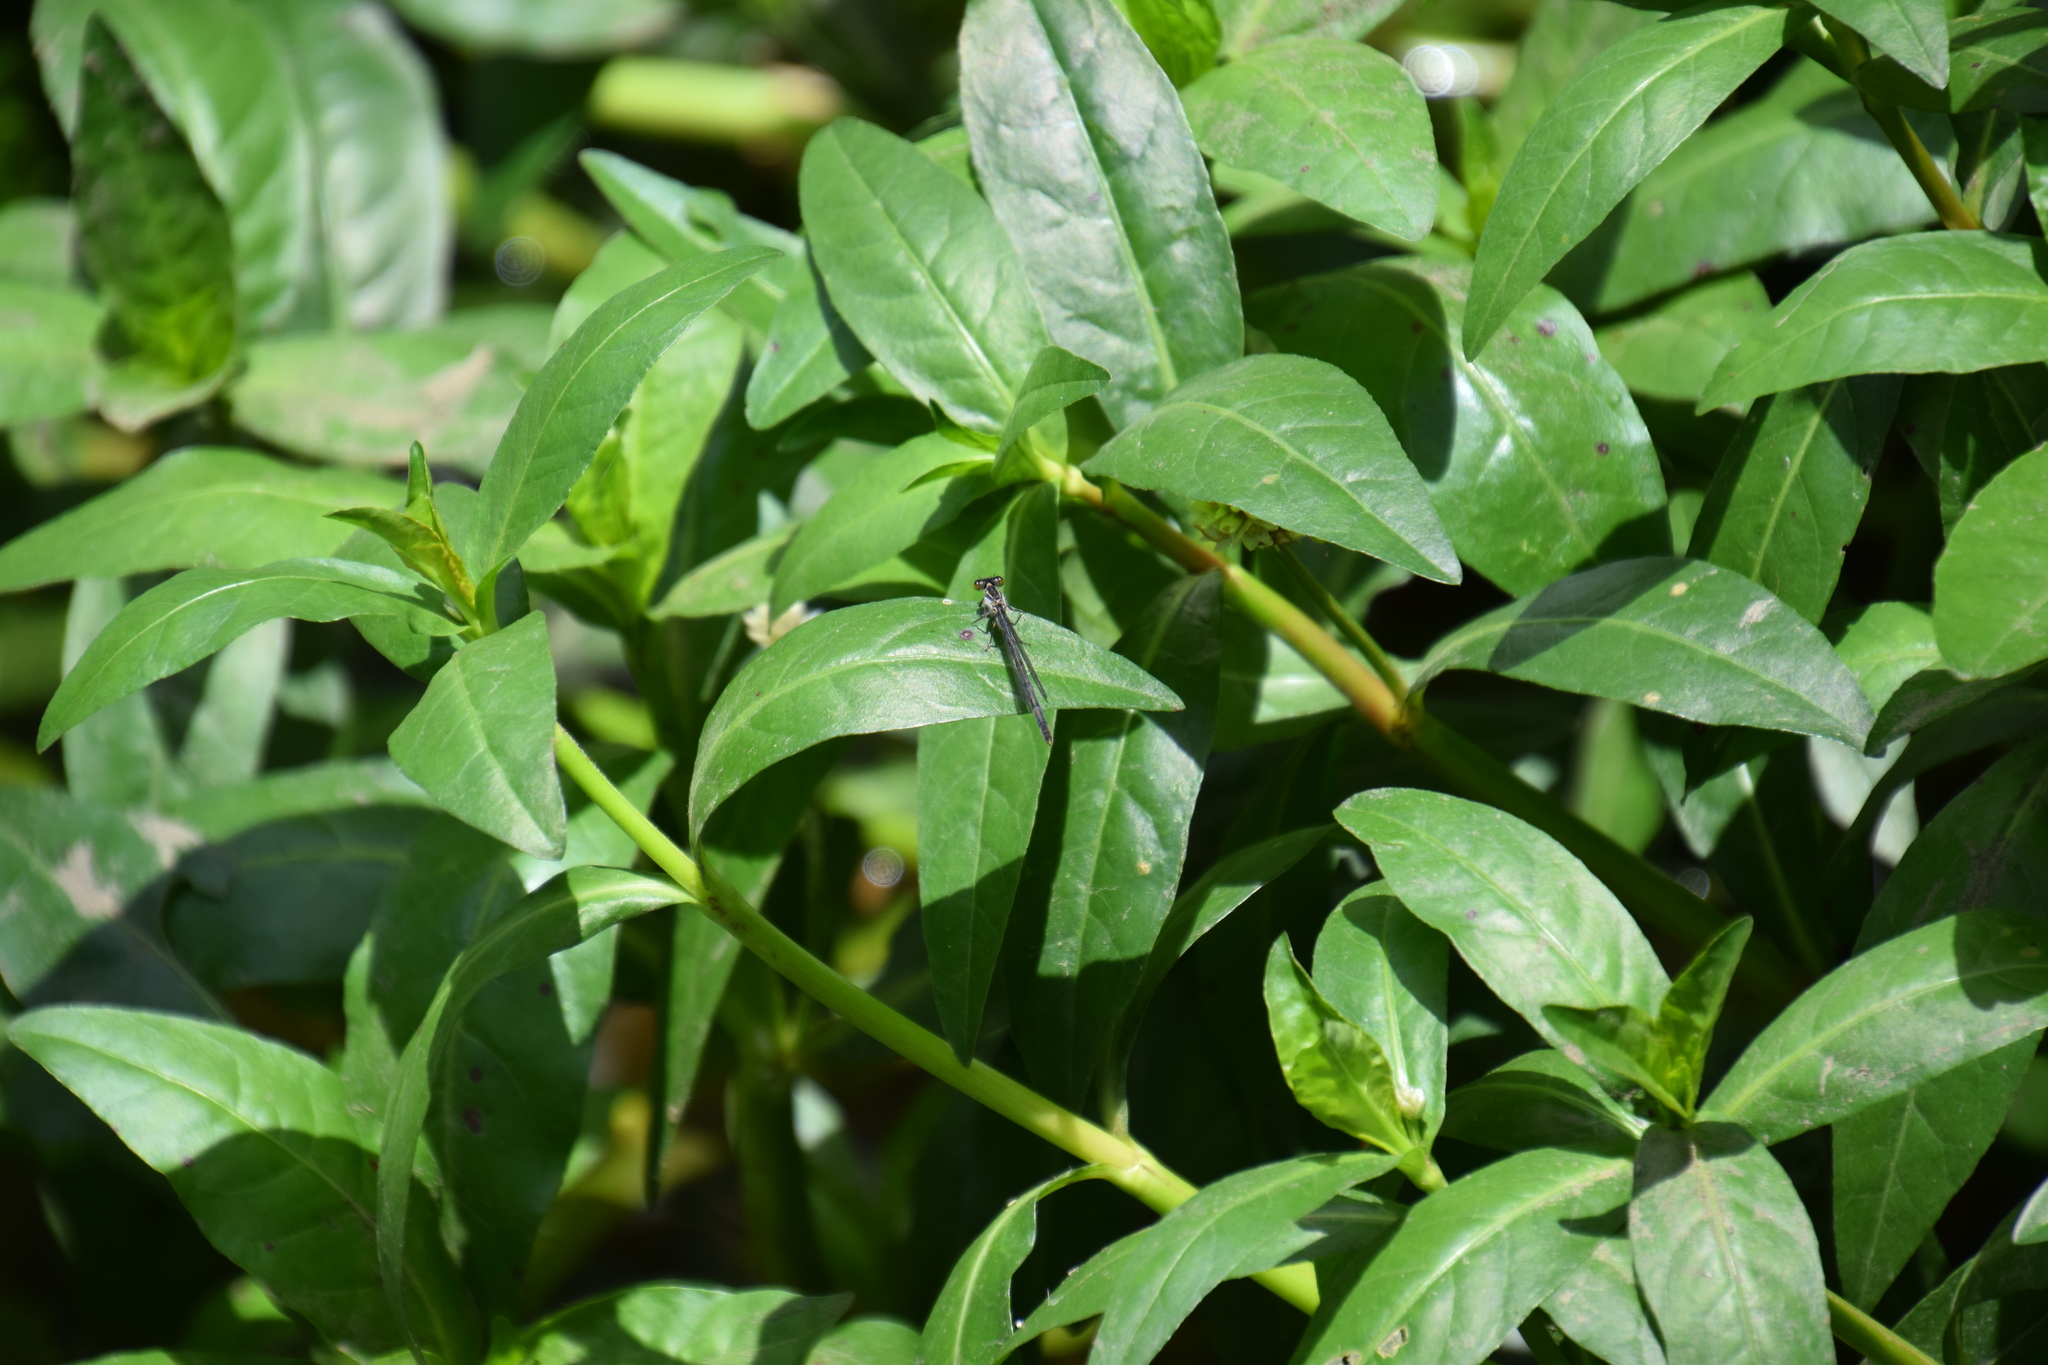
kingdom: Animalia
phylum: Arthropoda
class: Insecta
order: Odonata
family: Coenagrionidae
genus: Ischnura
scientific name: Ischnura heterosticta
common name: Common bluetail
